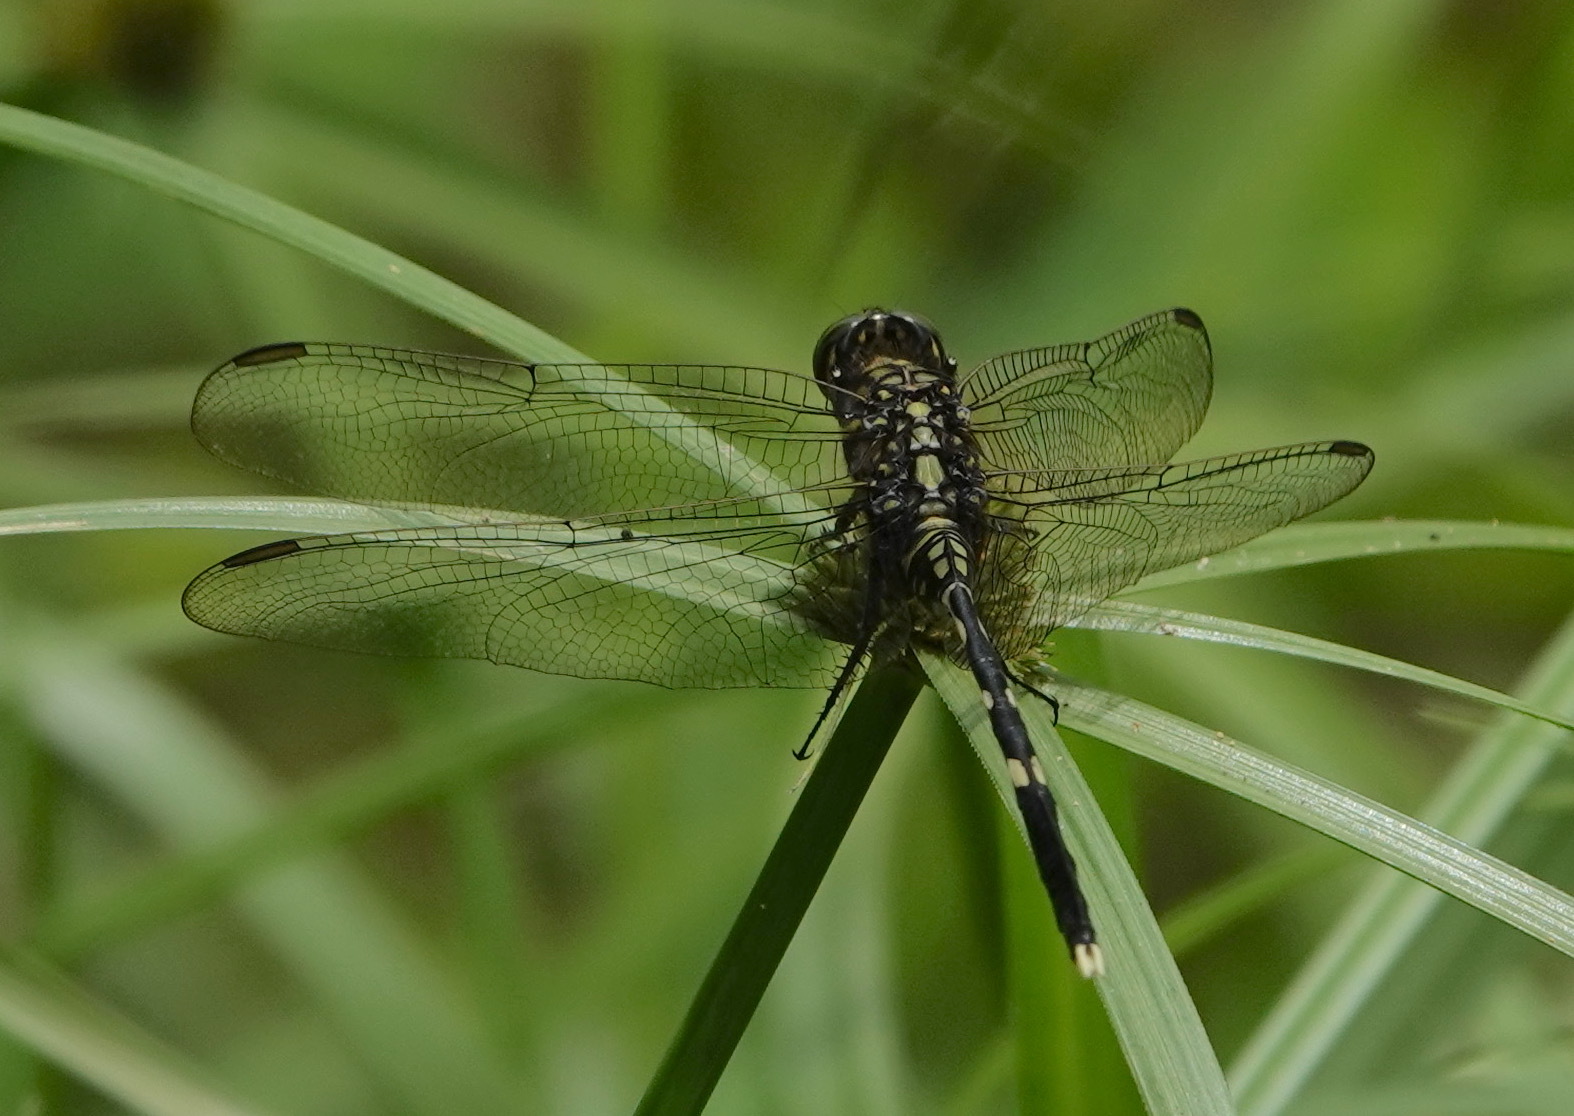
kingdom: Animalia
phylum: Arthropoda
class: Insecta
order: Odonata
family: Libellulidae
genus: Orthetrum
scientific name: Orthetrum sabina
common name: Slender skimmer
